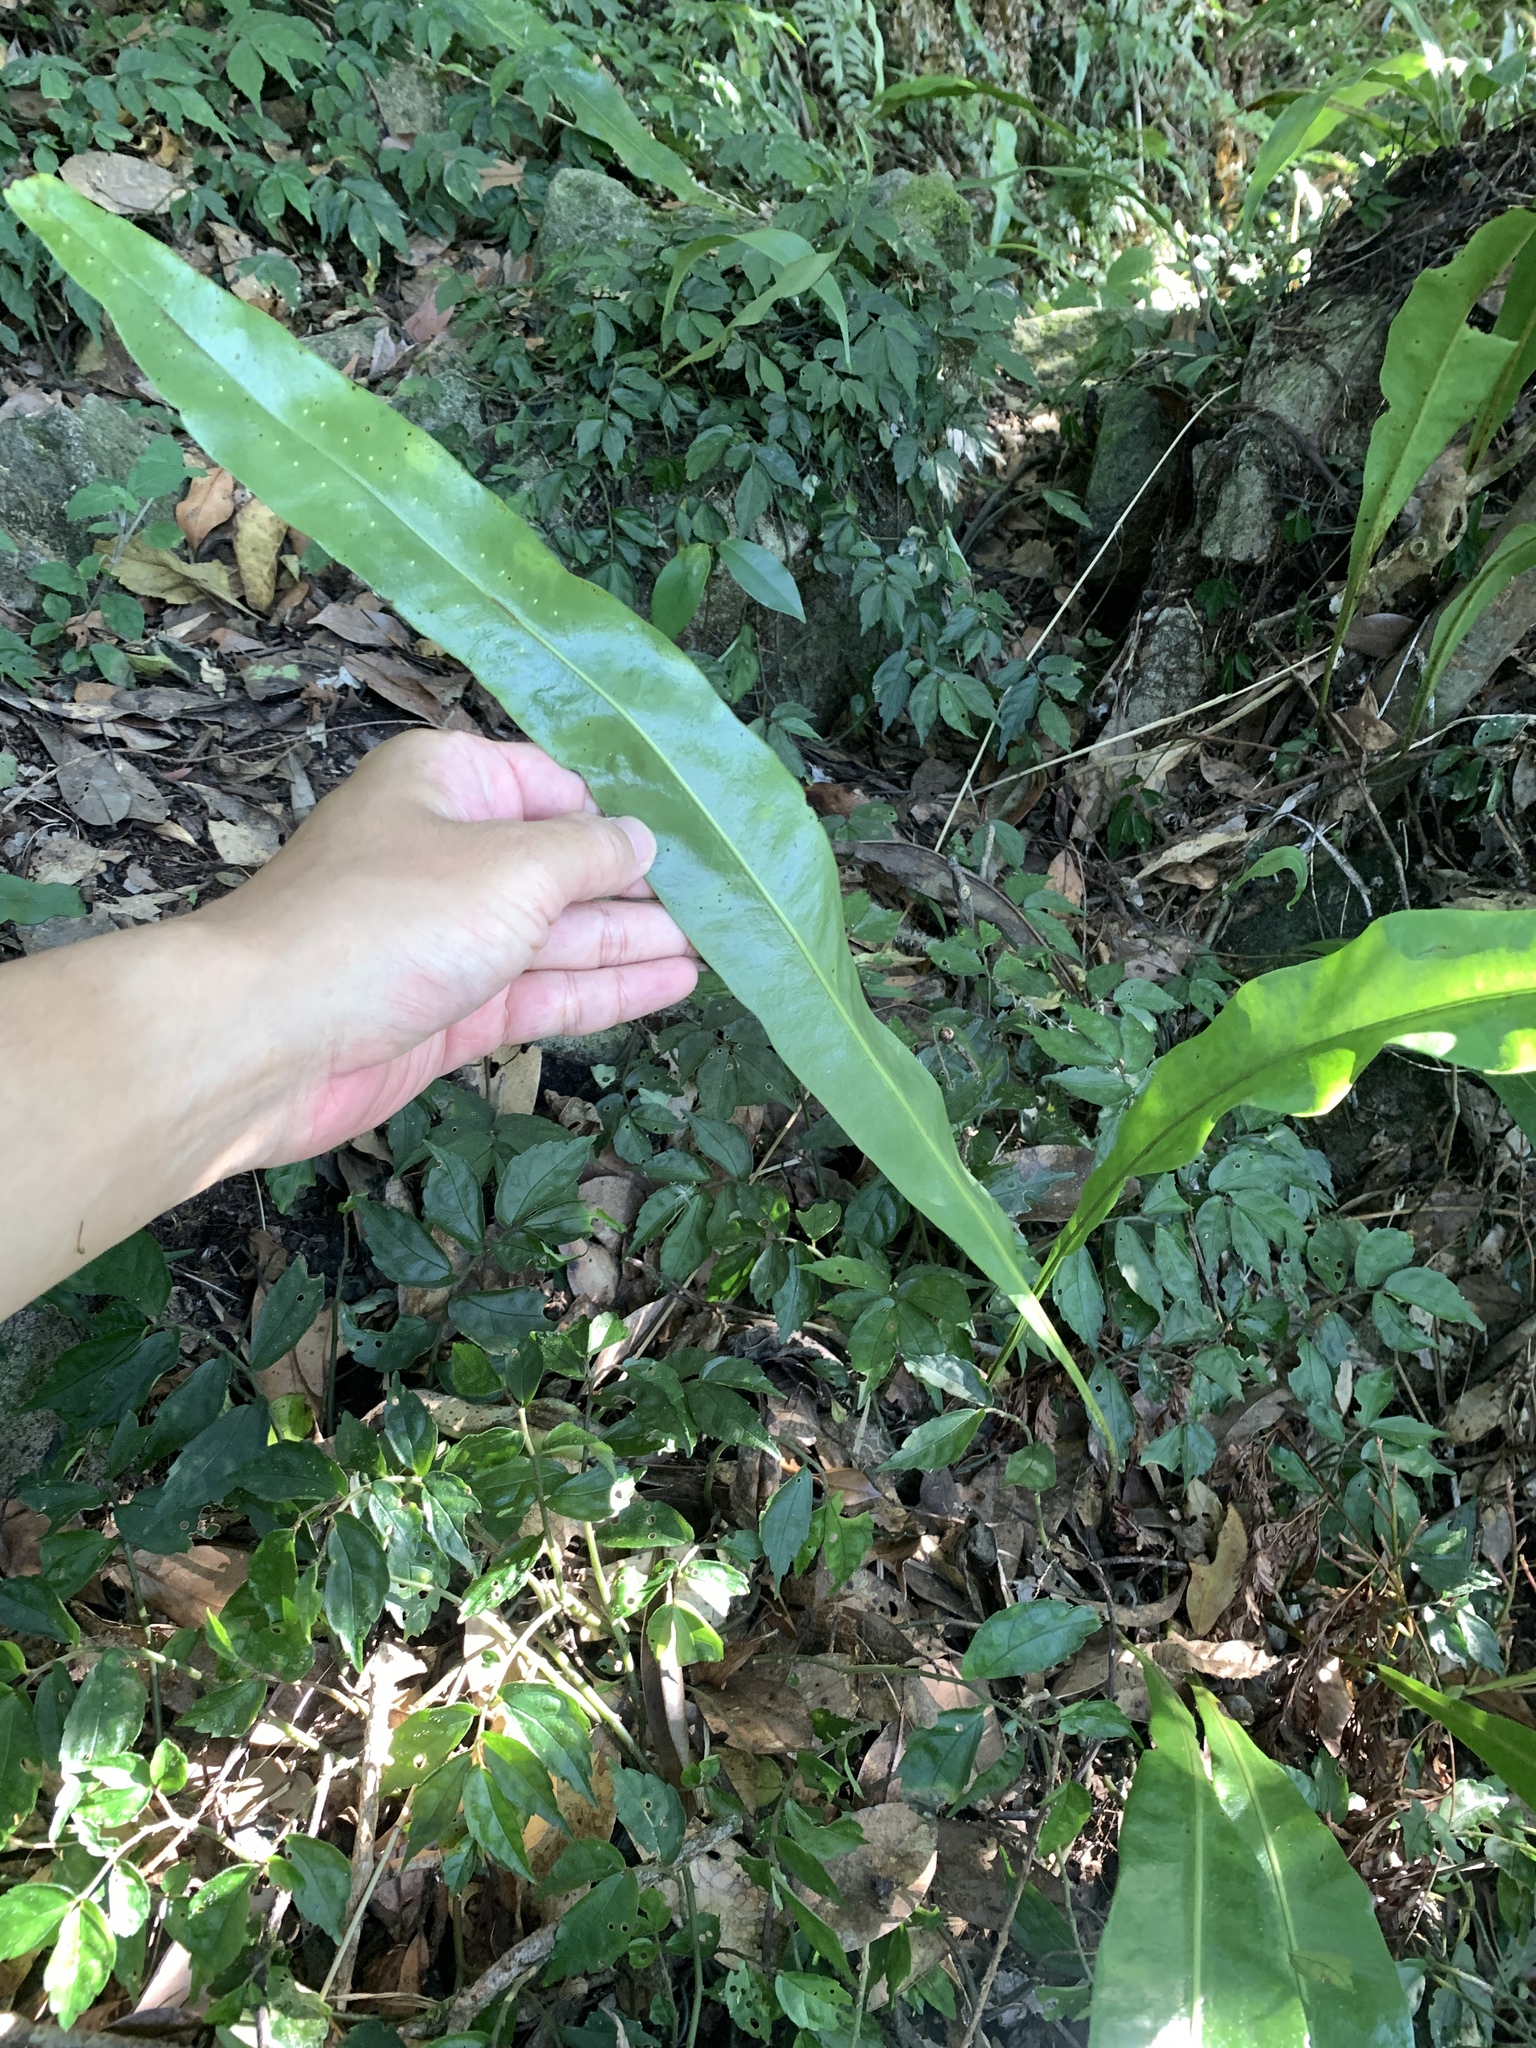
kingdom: Plantae
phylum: Tracheophyta
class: Polypodiopsida
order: Polypodiales
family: Polypodiaceae
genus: Lepisorus
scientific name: Lepisorus fortuni
